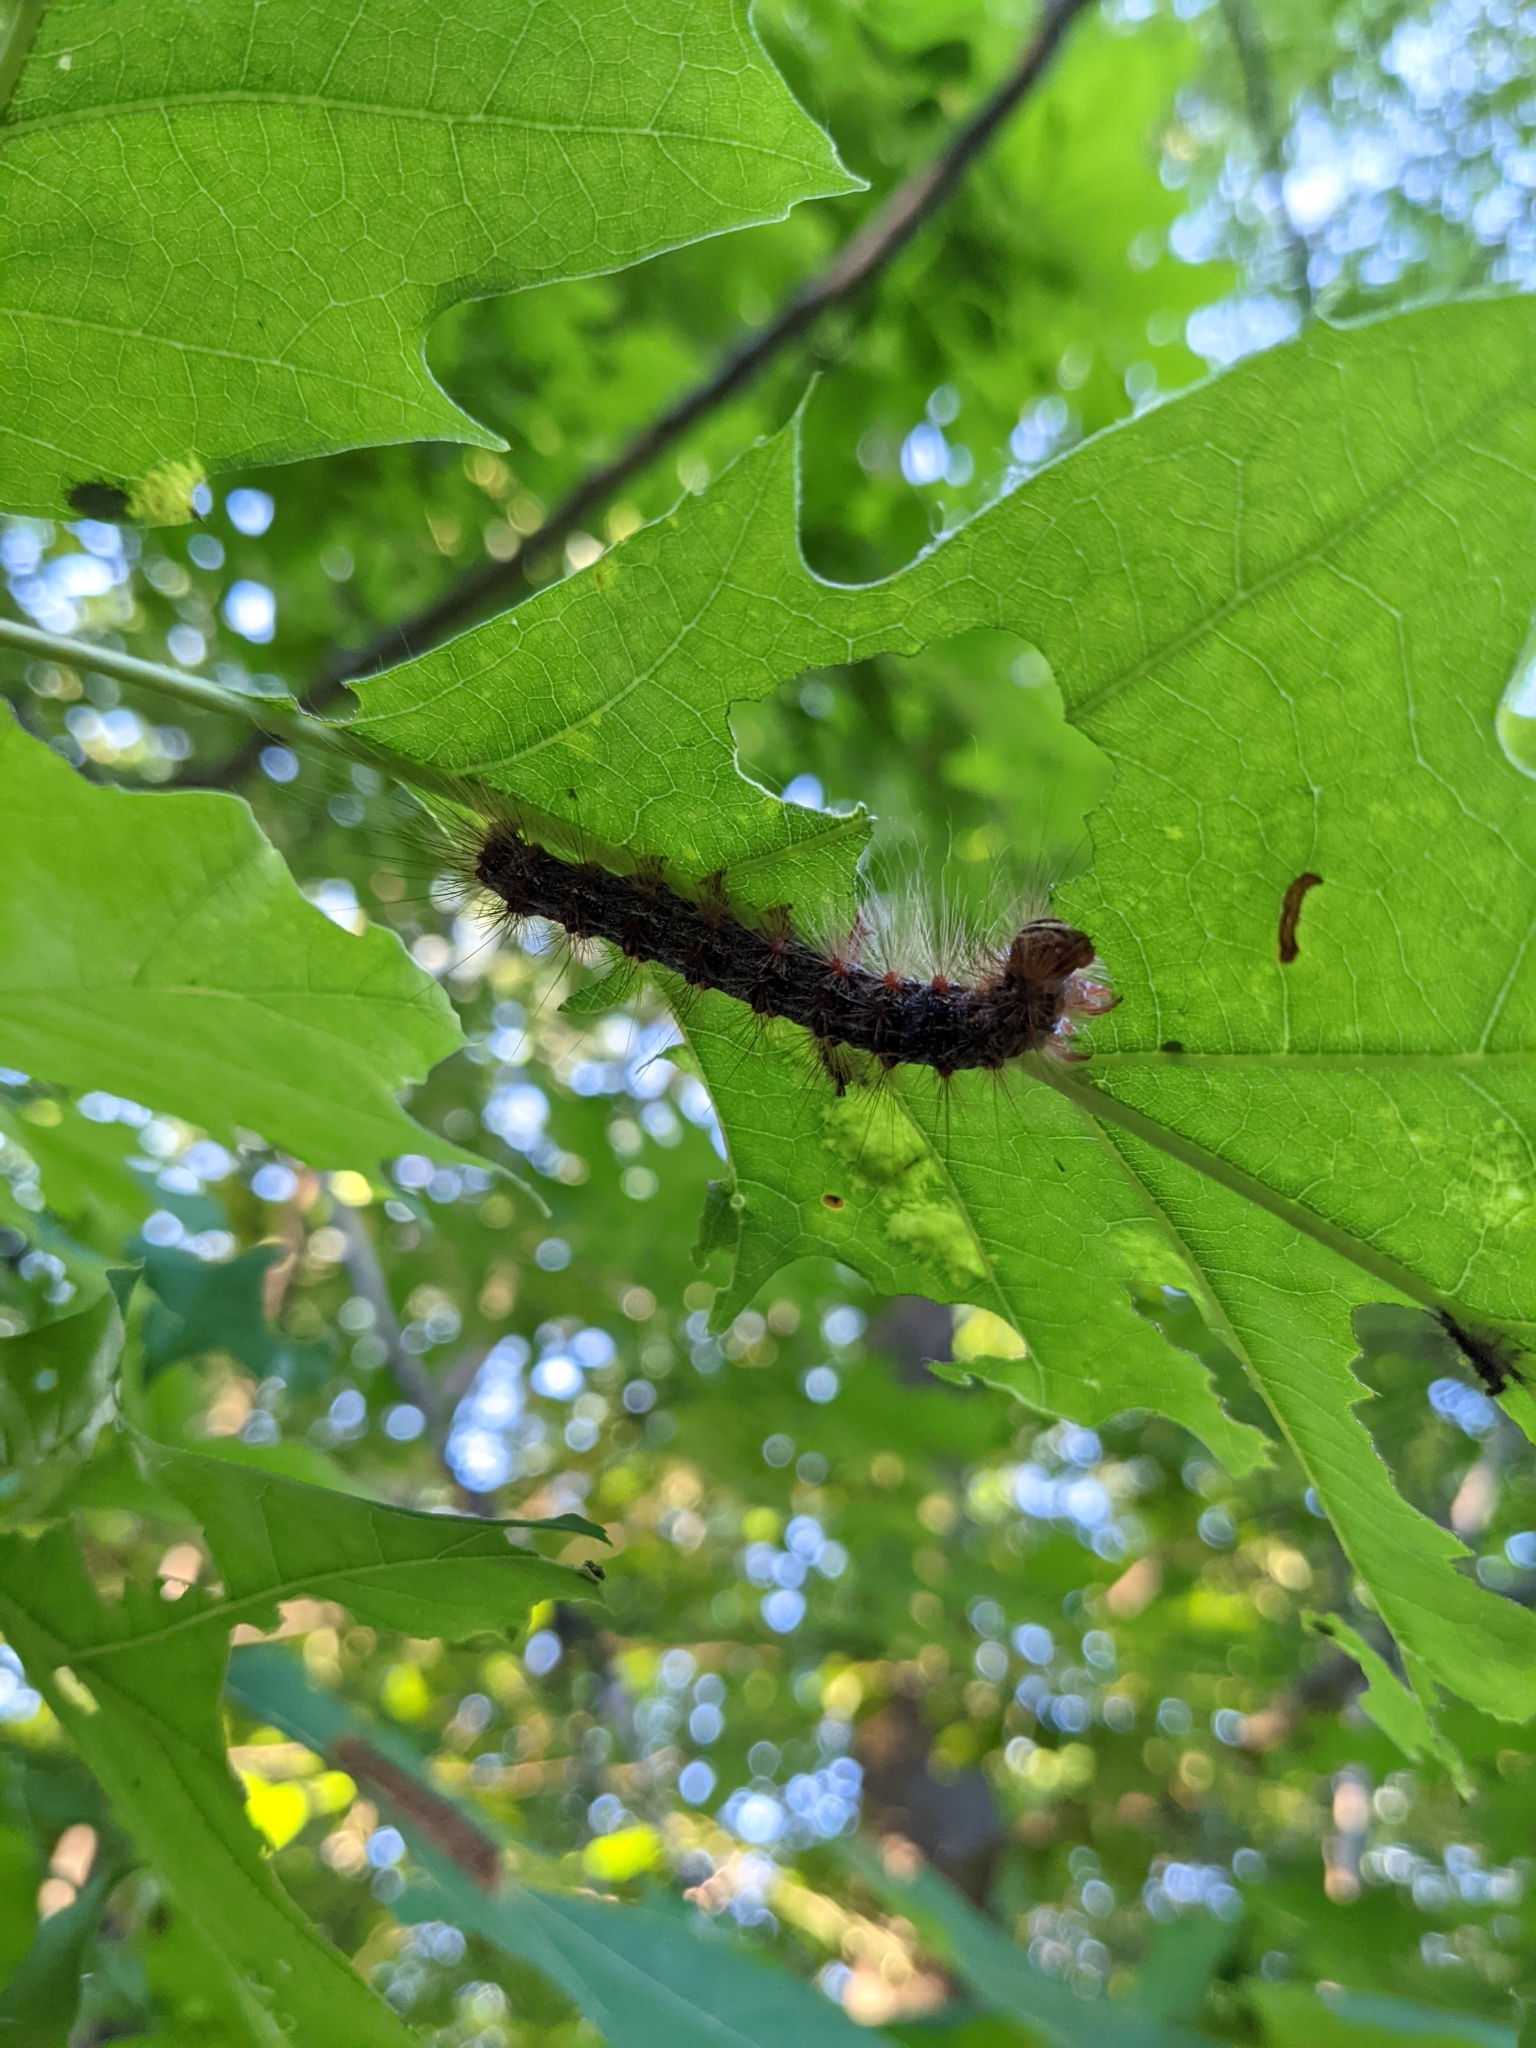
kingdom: Animalia
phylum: Arthropoda
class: Insecta
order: Lepidoptera
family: Erebidae
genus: Lymantria
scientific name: Lymantria dispar
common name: Gypsy moth
